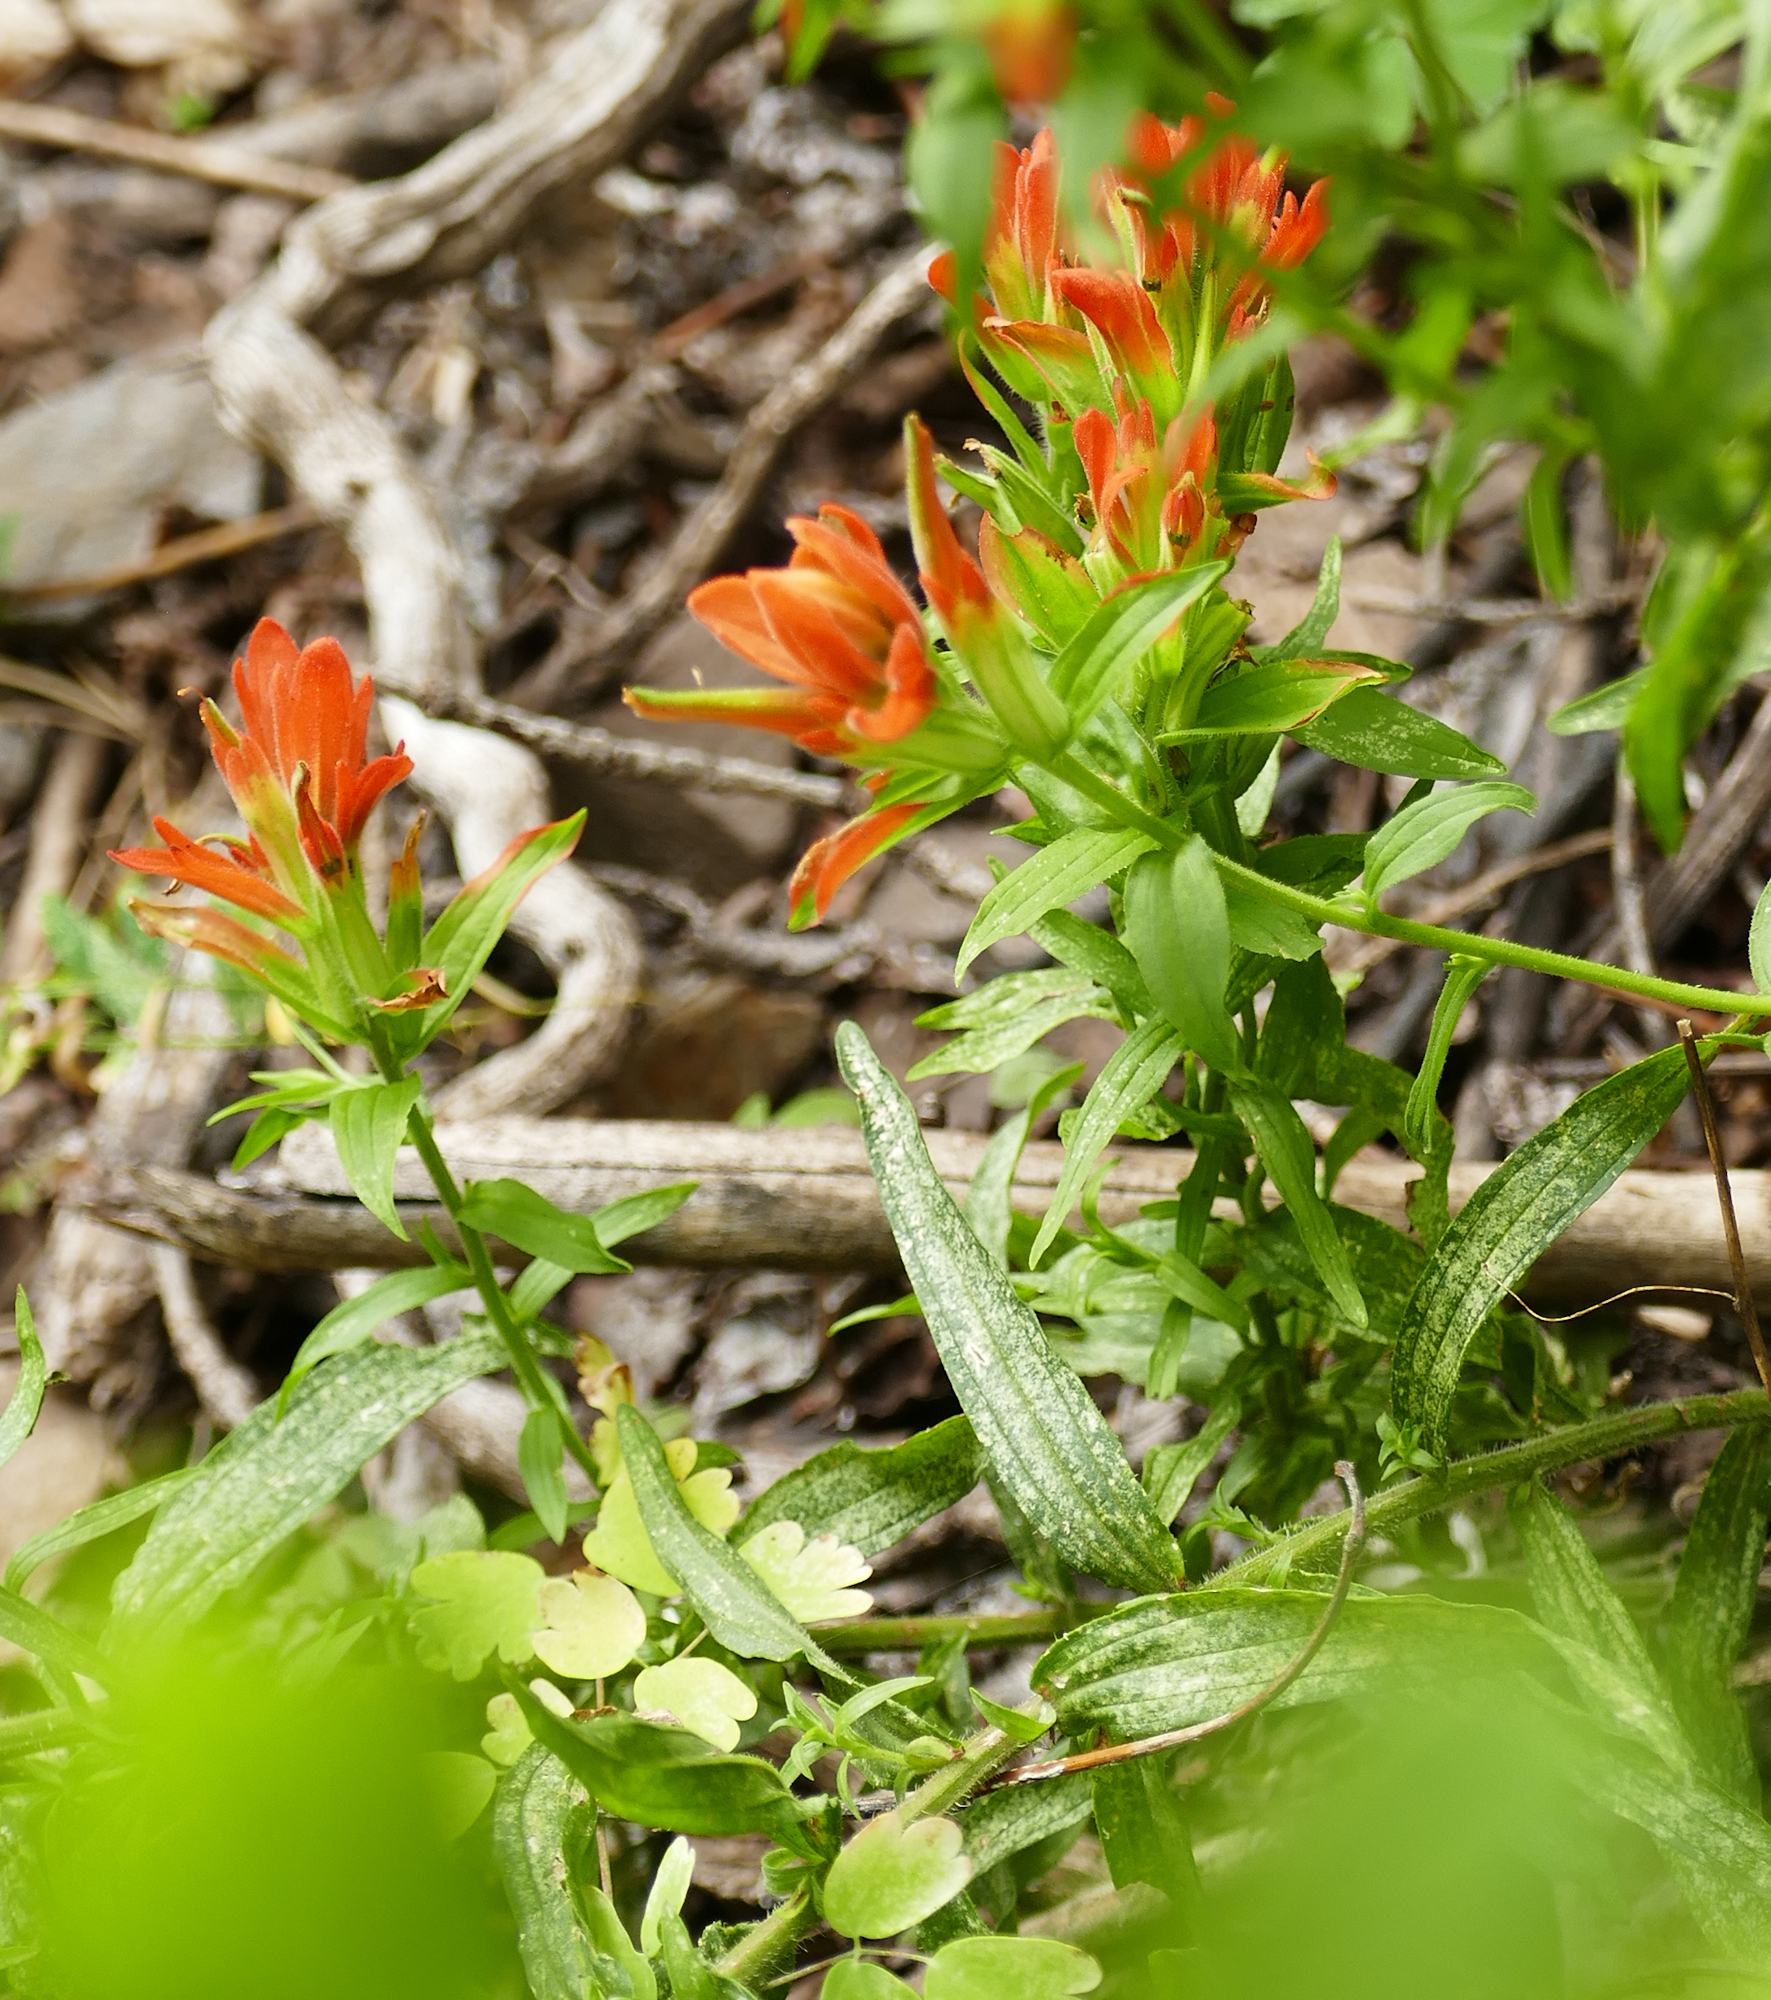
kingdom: Plantae
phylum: Tracheophyta
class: Magnoliopsida
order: Lamiales
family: Orobanchaceae
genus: Castilleja
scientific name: Castilleja nelsonii
